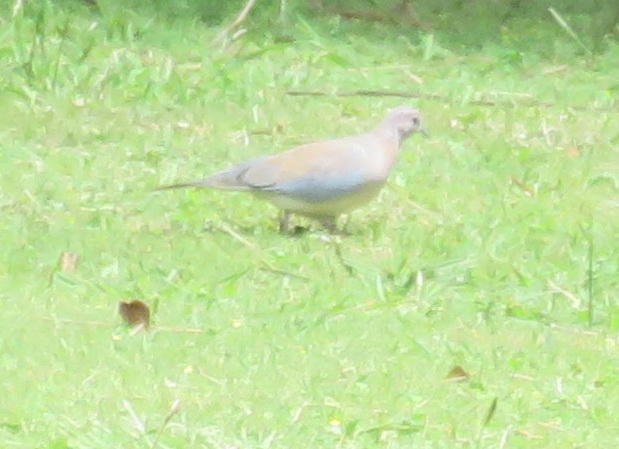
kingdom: Animalia
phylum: Chordata
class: Aves
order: Columbiformes
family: Columbidae
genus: Spilopelia
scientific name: Spilopelia senegalensis
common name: Laughing dove
